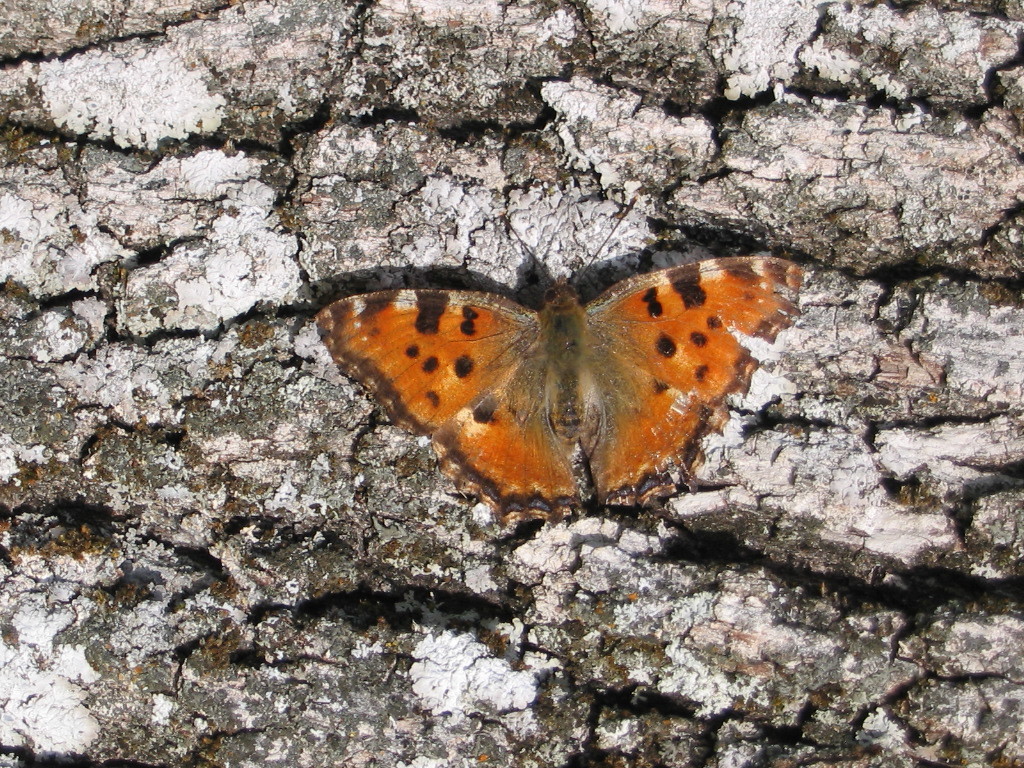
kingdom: Animalia
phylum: Arthropoda
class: Insecta
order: Lepidoptera
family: Nymphalidae
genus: Nymphalis
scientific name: Nymphalis polychloros
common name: Large tortoiseshell
